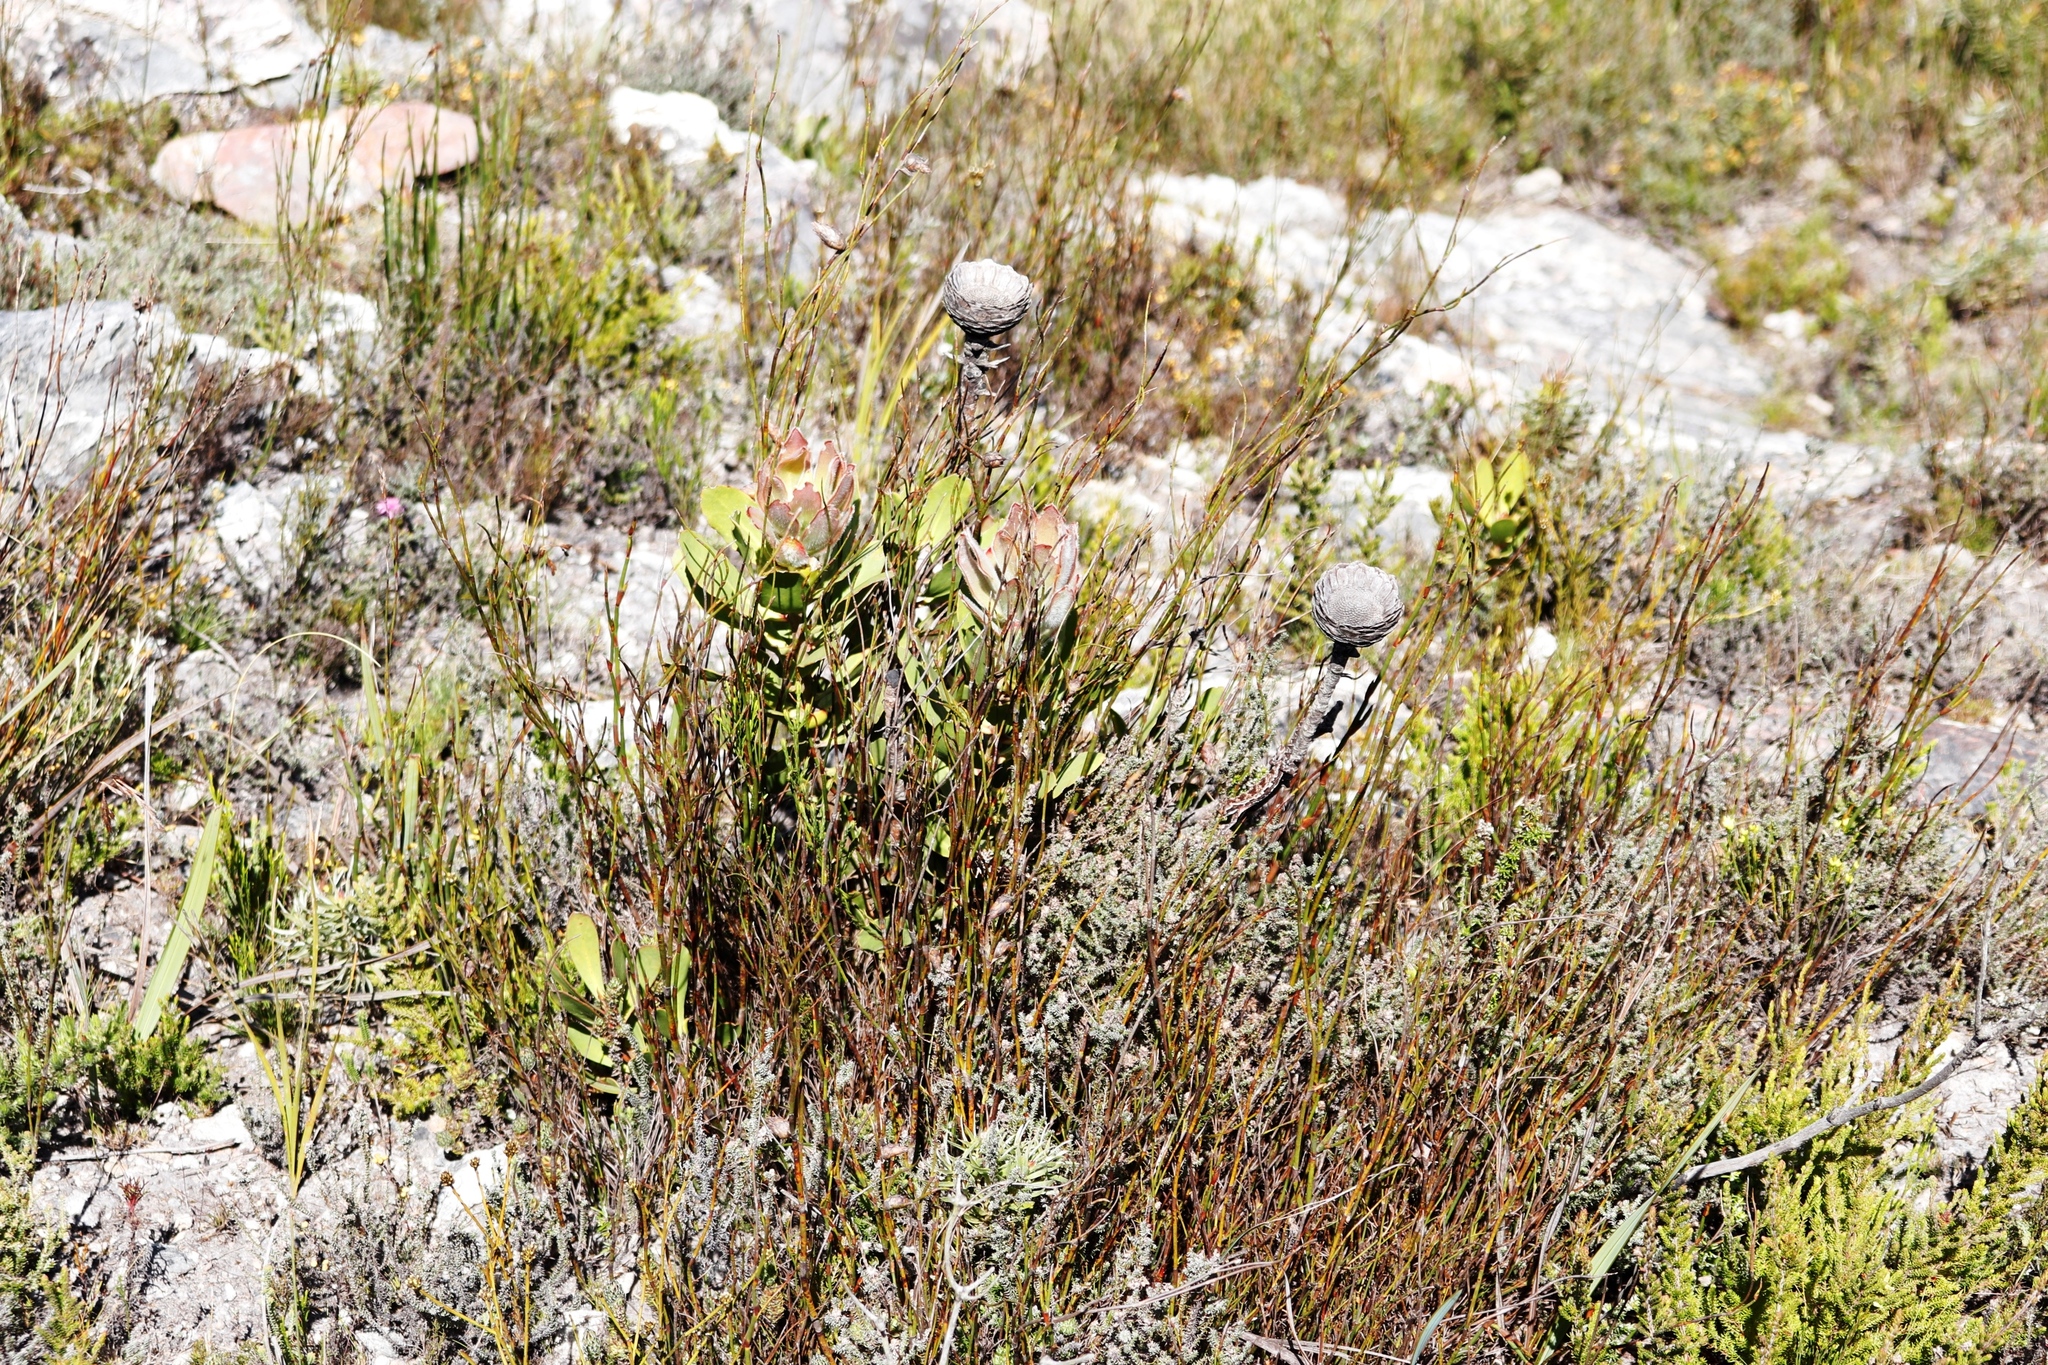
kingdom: Plantae
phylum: Tracheophyta
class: Magnoliopsida
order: Proteales
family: Proteaceae
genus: Protea
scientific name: Protea speciosa
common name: Brown-beard sugarbush
